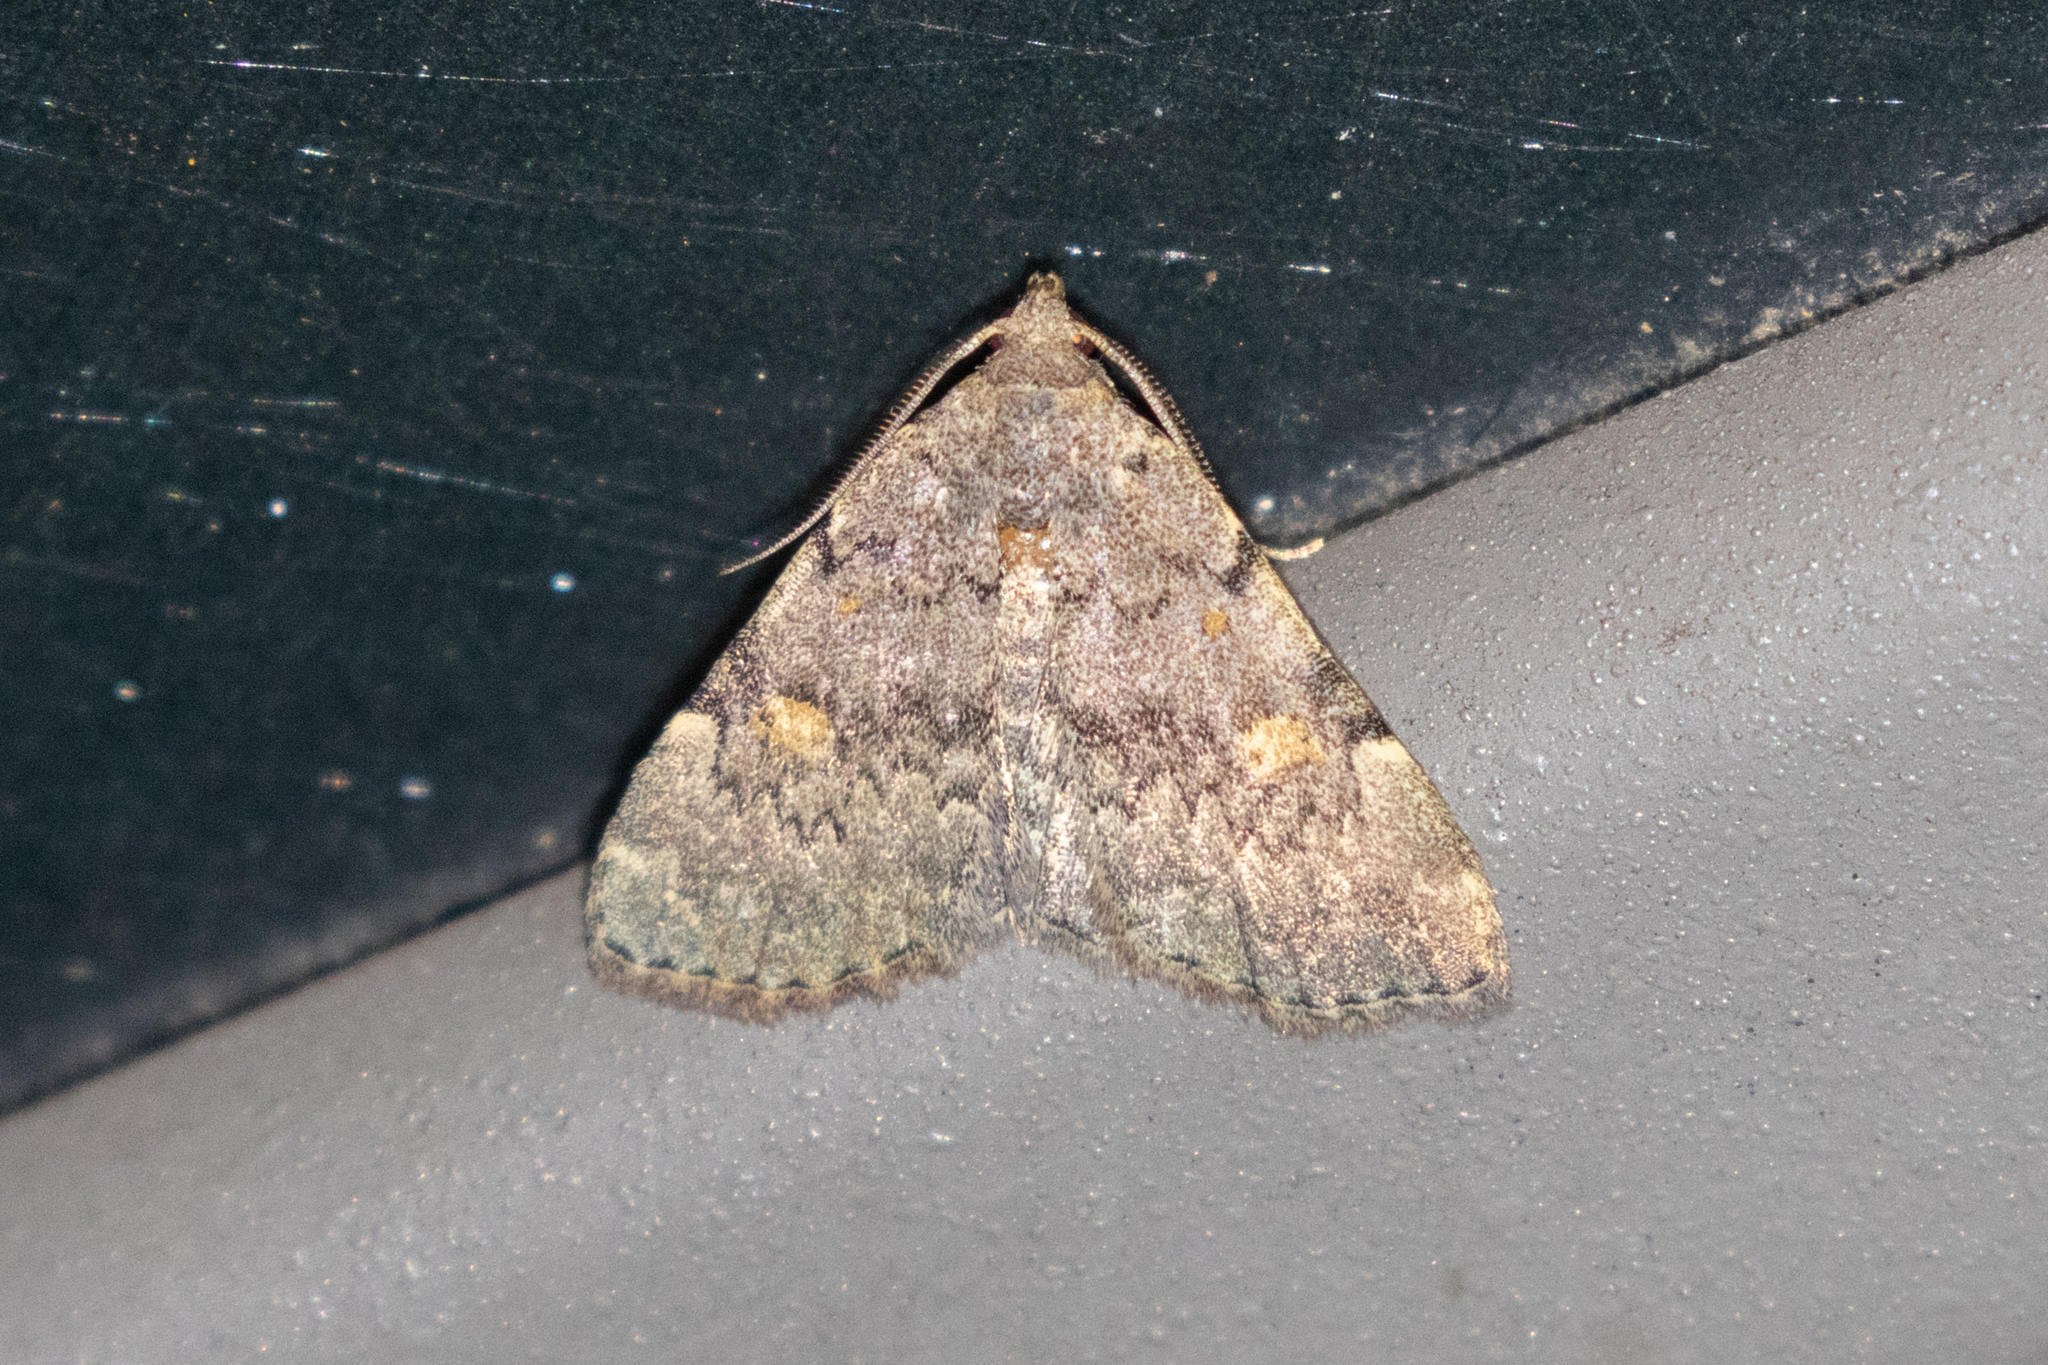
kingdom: Animalia
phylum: Arthropoda
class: Insecta
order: Lepidoptera
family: Erebidae
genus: Idia
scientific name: Idia aemula
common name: Common idia moth
